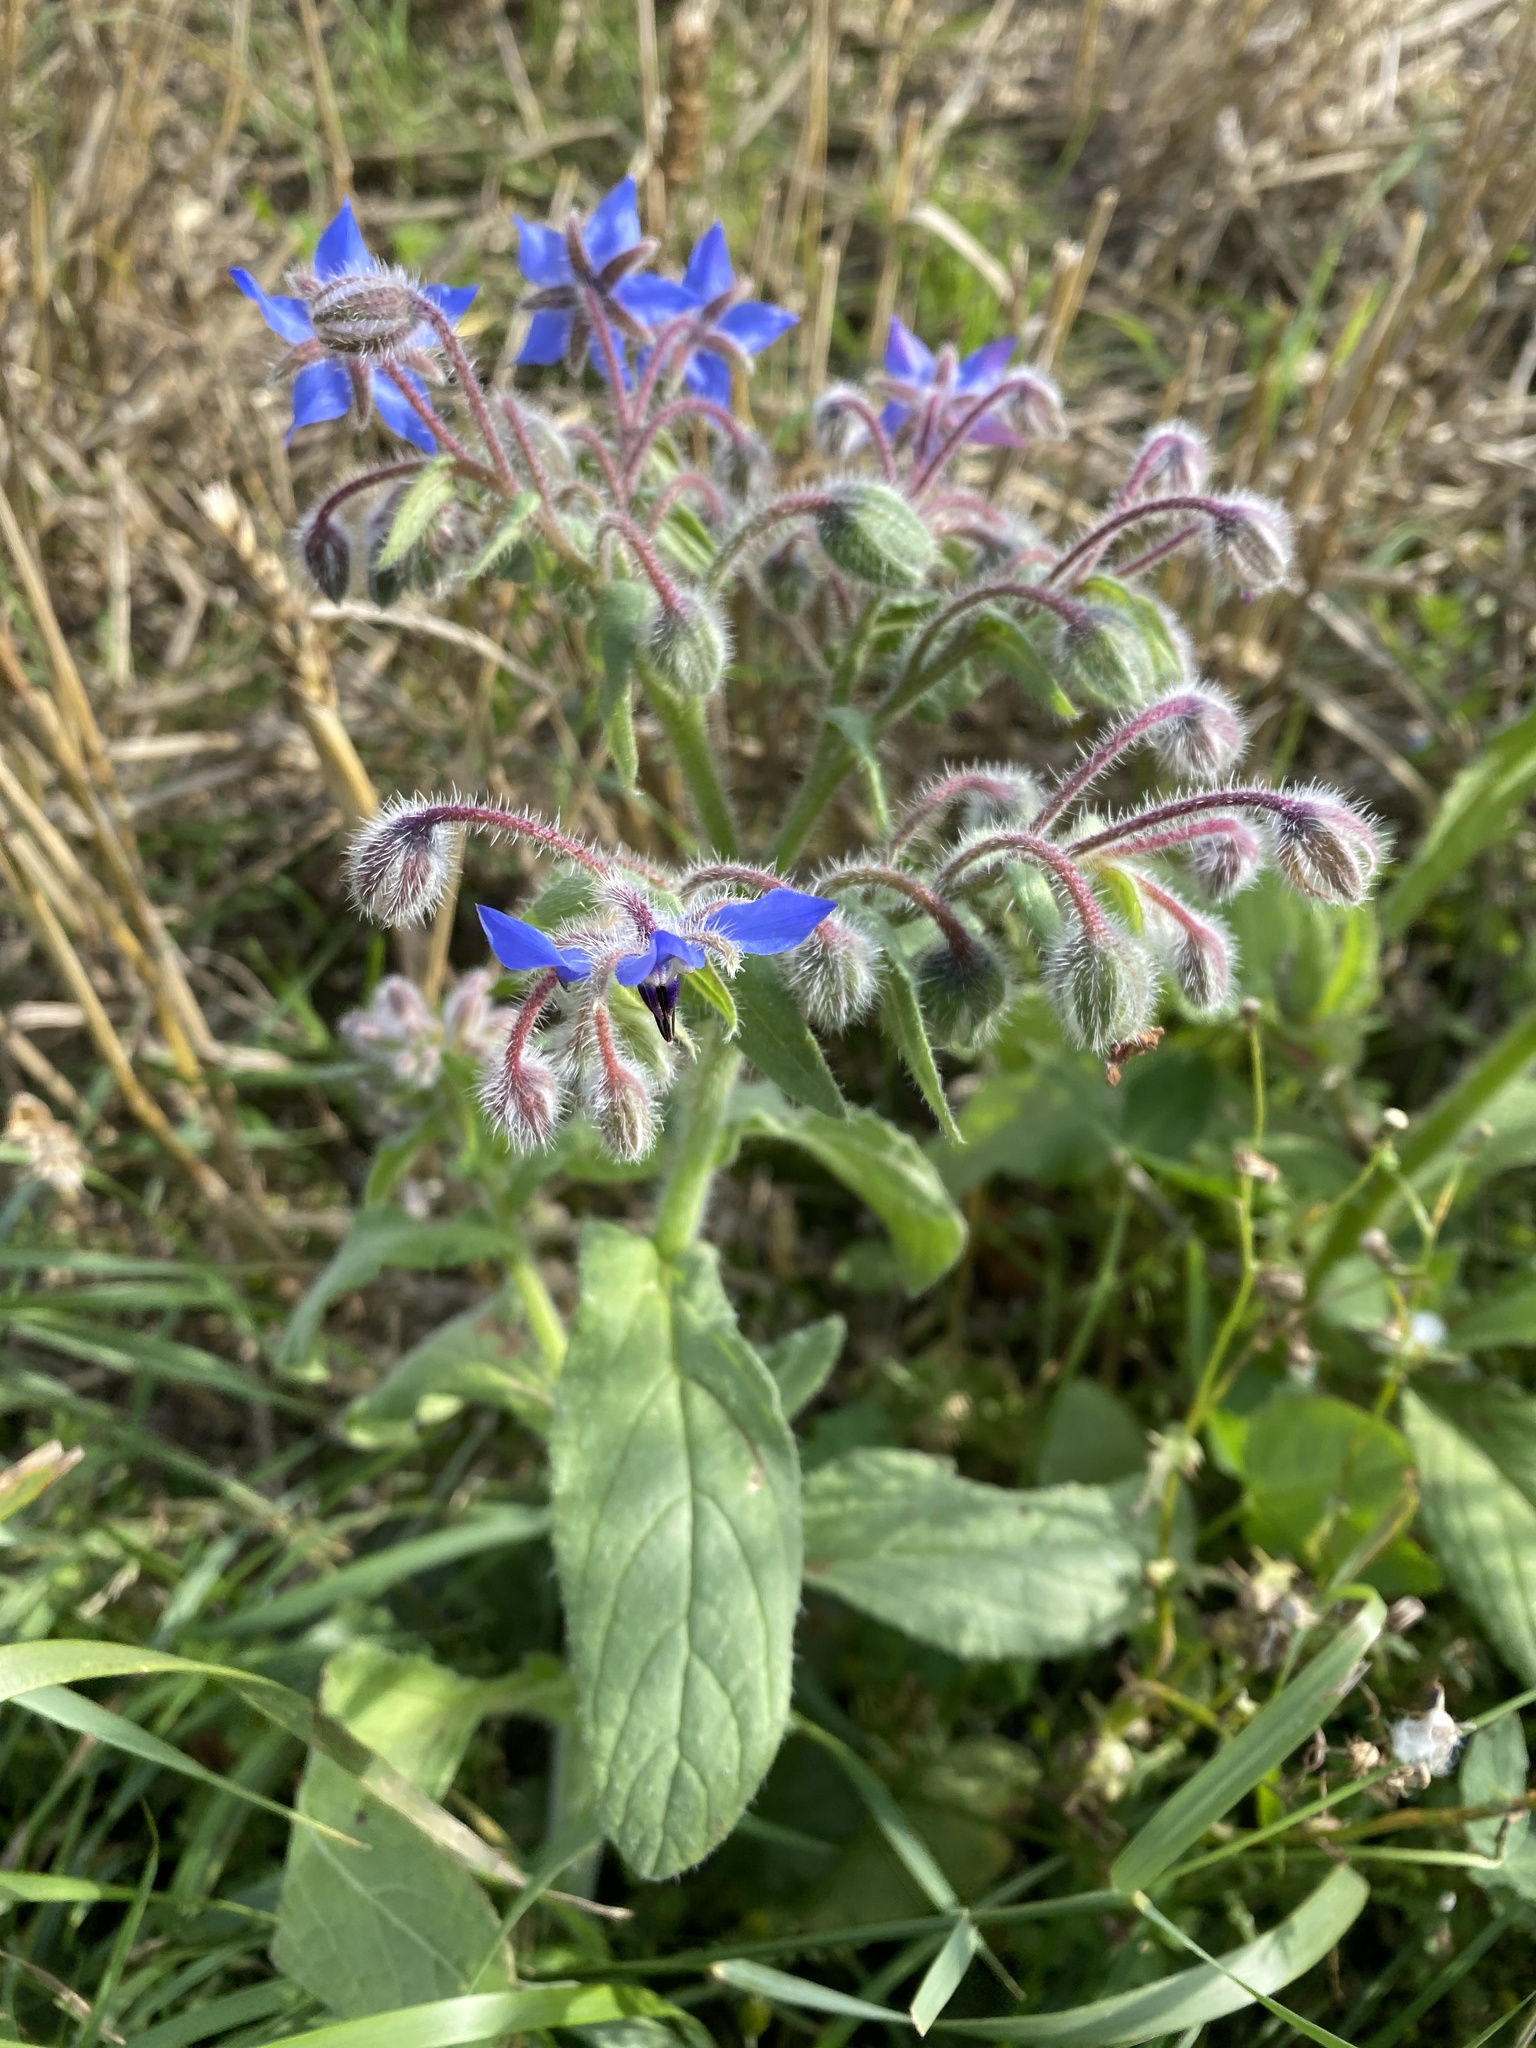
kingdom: Plantae
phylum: Tracheophyta
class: Magnoliopsida
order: Boraginales
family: Boraginaceae
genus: Borago
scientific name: Borago officinalis
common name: Borage
